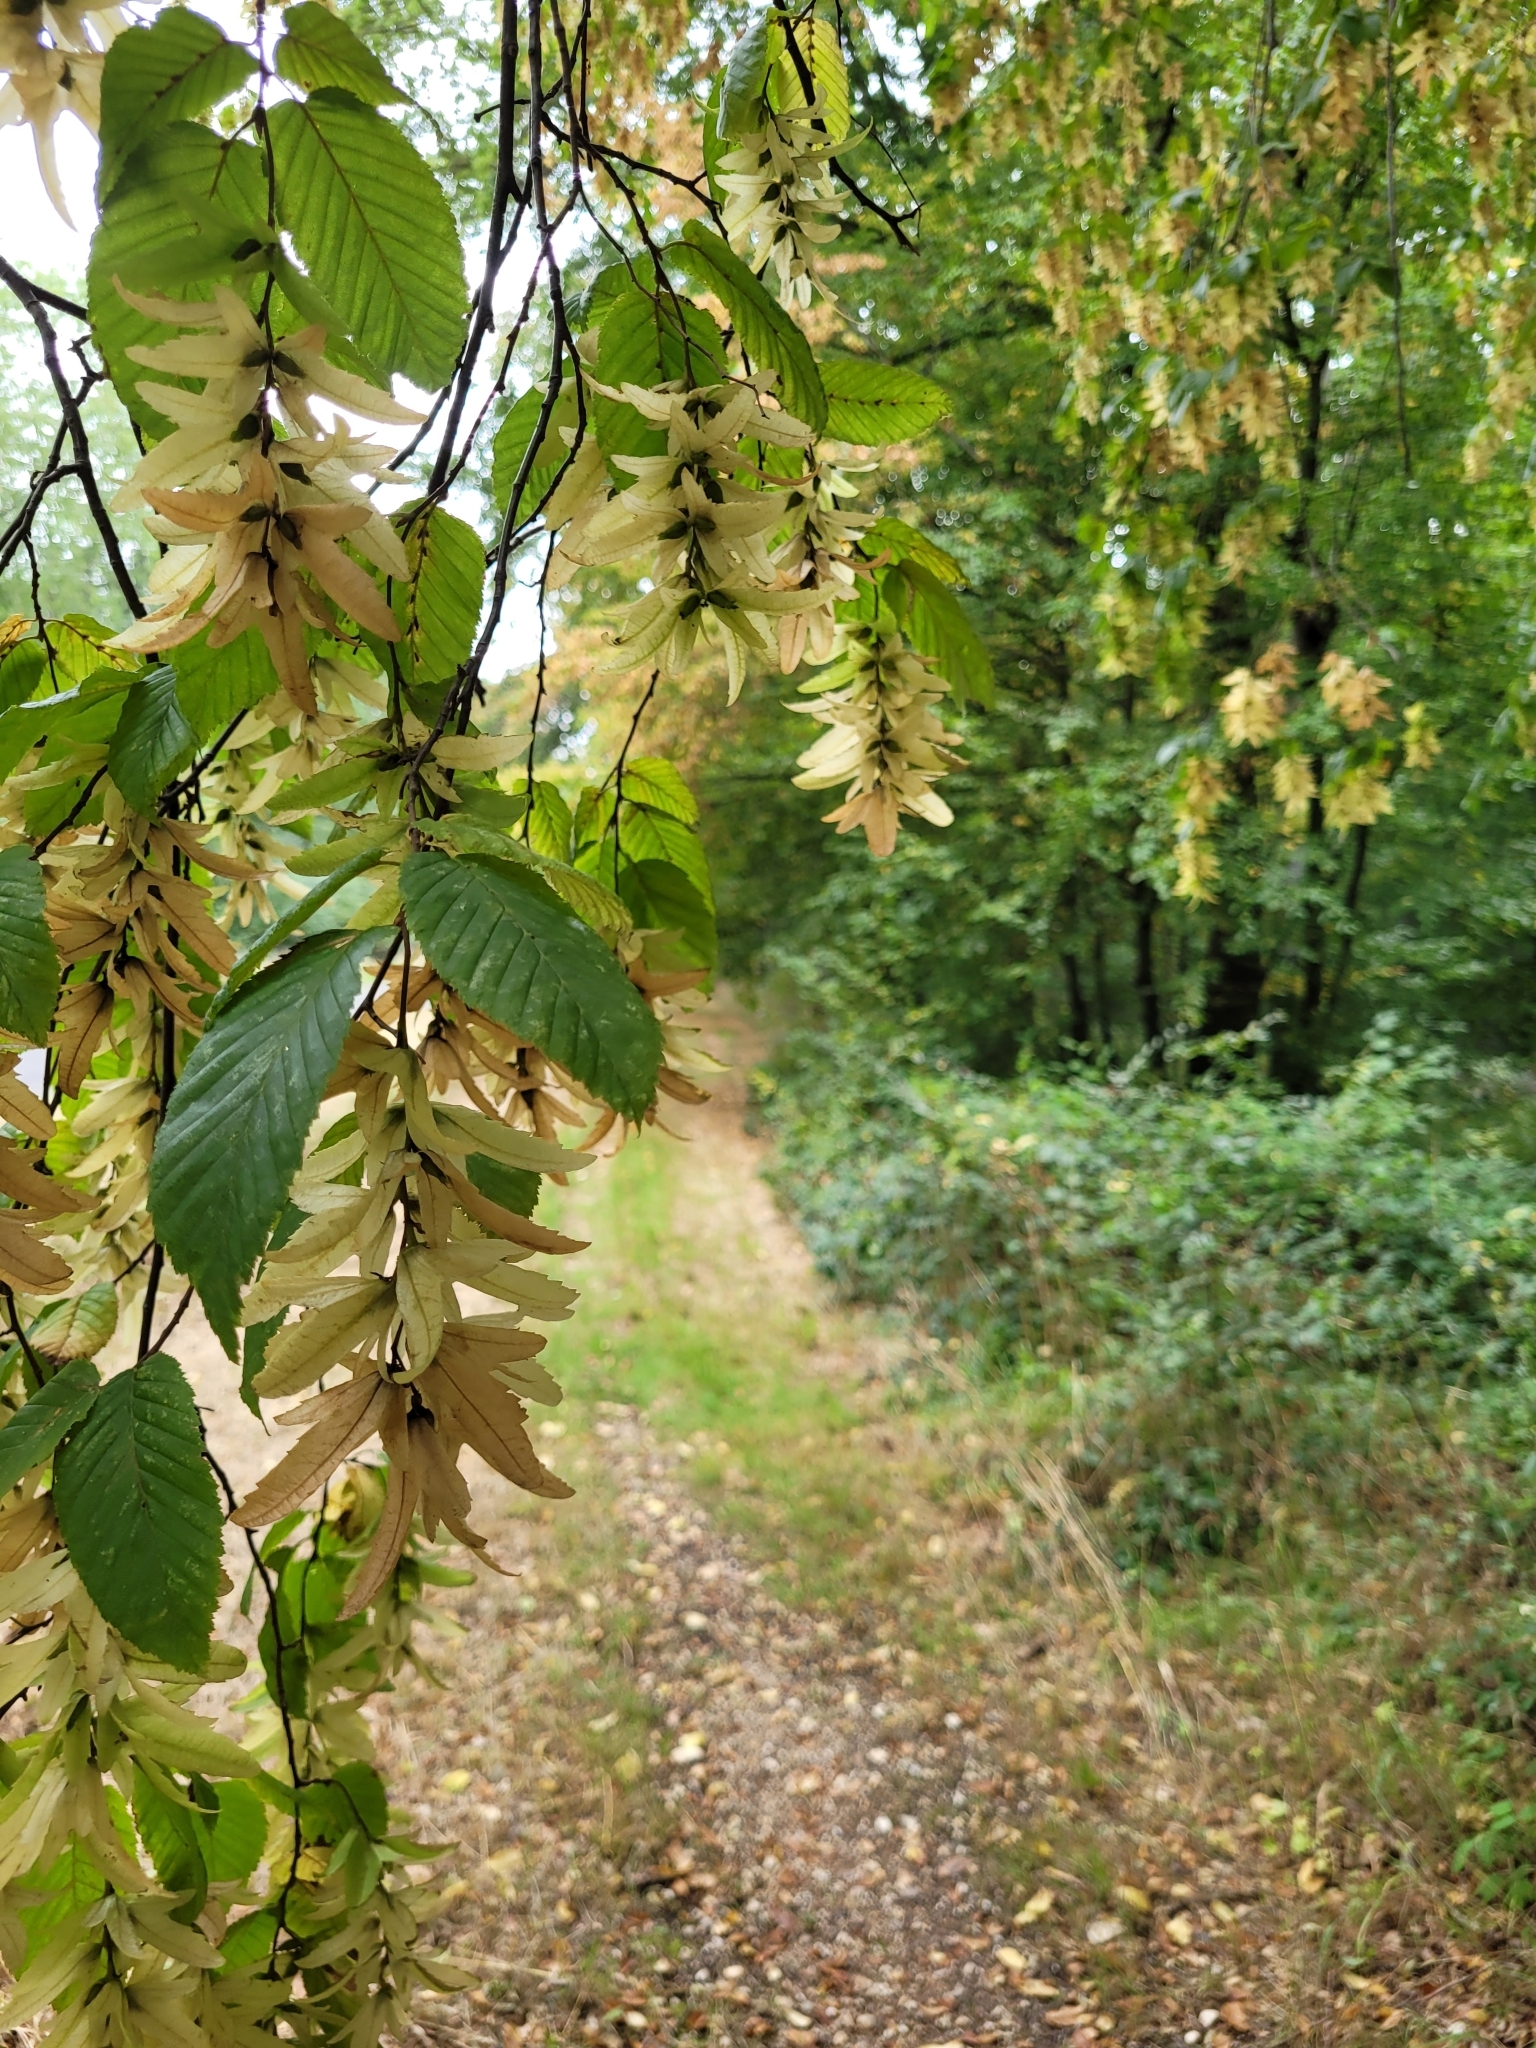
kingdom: Plantae
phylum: Tracheophyta
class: Magnoliopsida
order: Fagales
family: Betulaceae
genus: Carpinus
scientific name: Carpinus betulus
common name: Hornbeam
